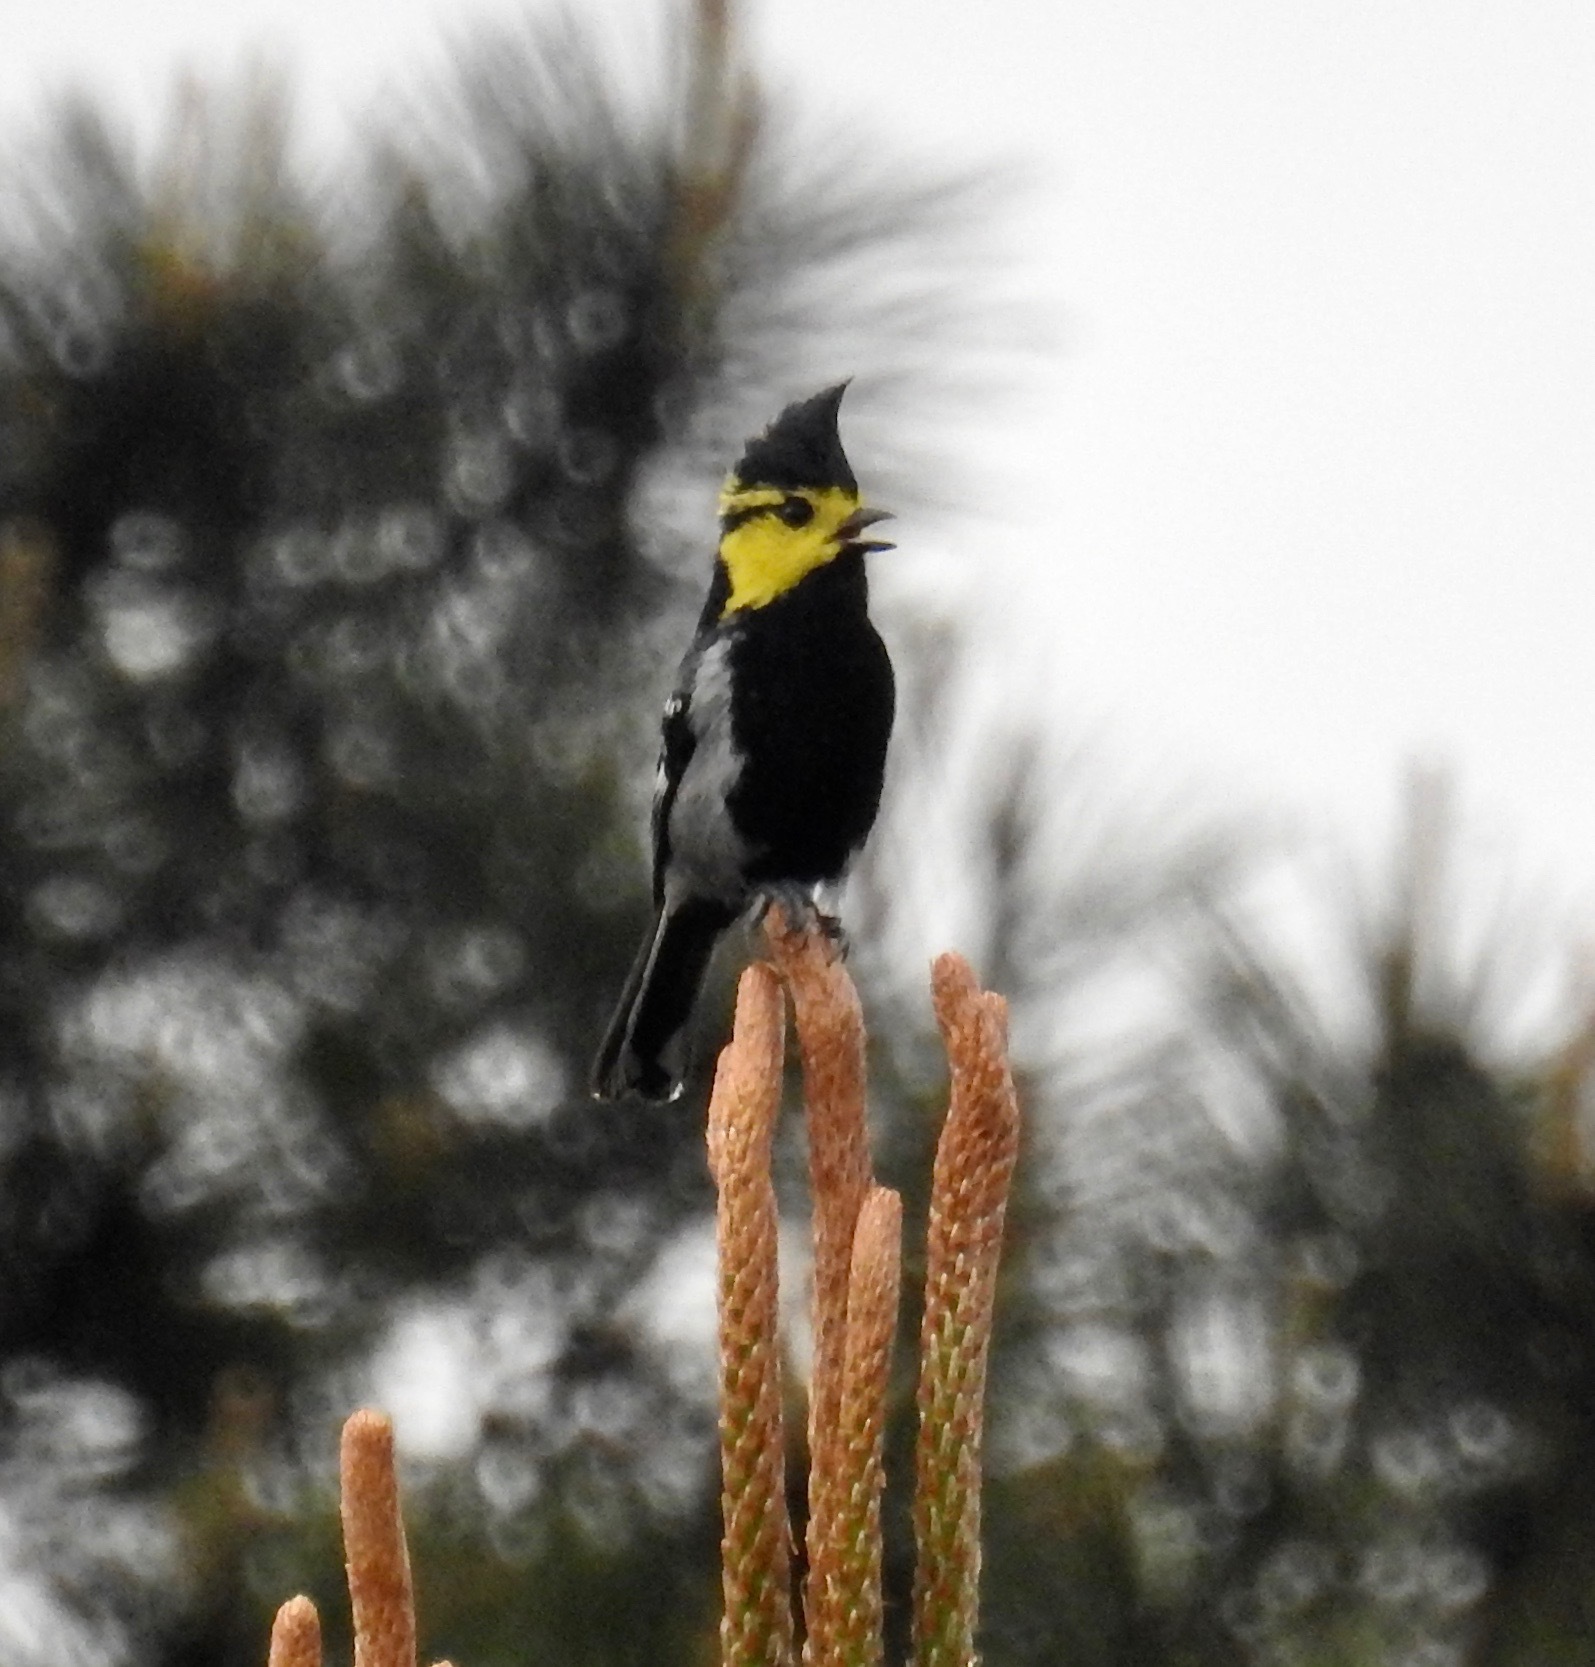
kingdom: Animalia
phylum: Chordata
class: Aves
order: Passeriformes
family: Paridae
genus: Parus
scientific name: Parus spilonotus
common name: Yellow-cheeked tit
